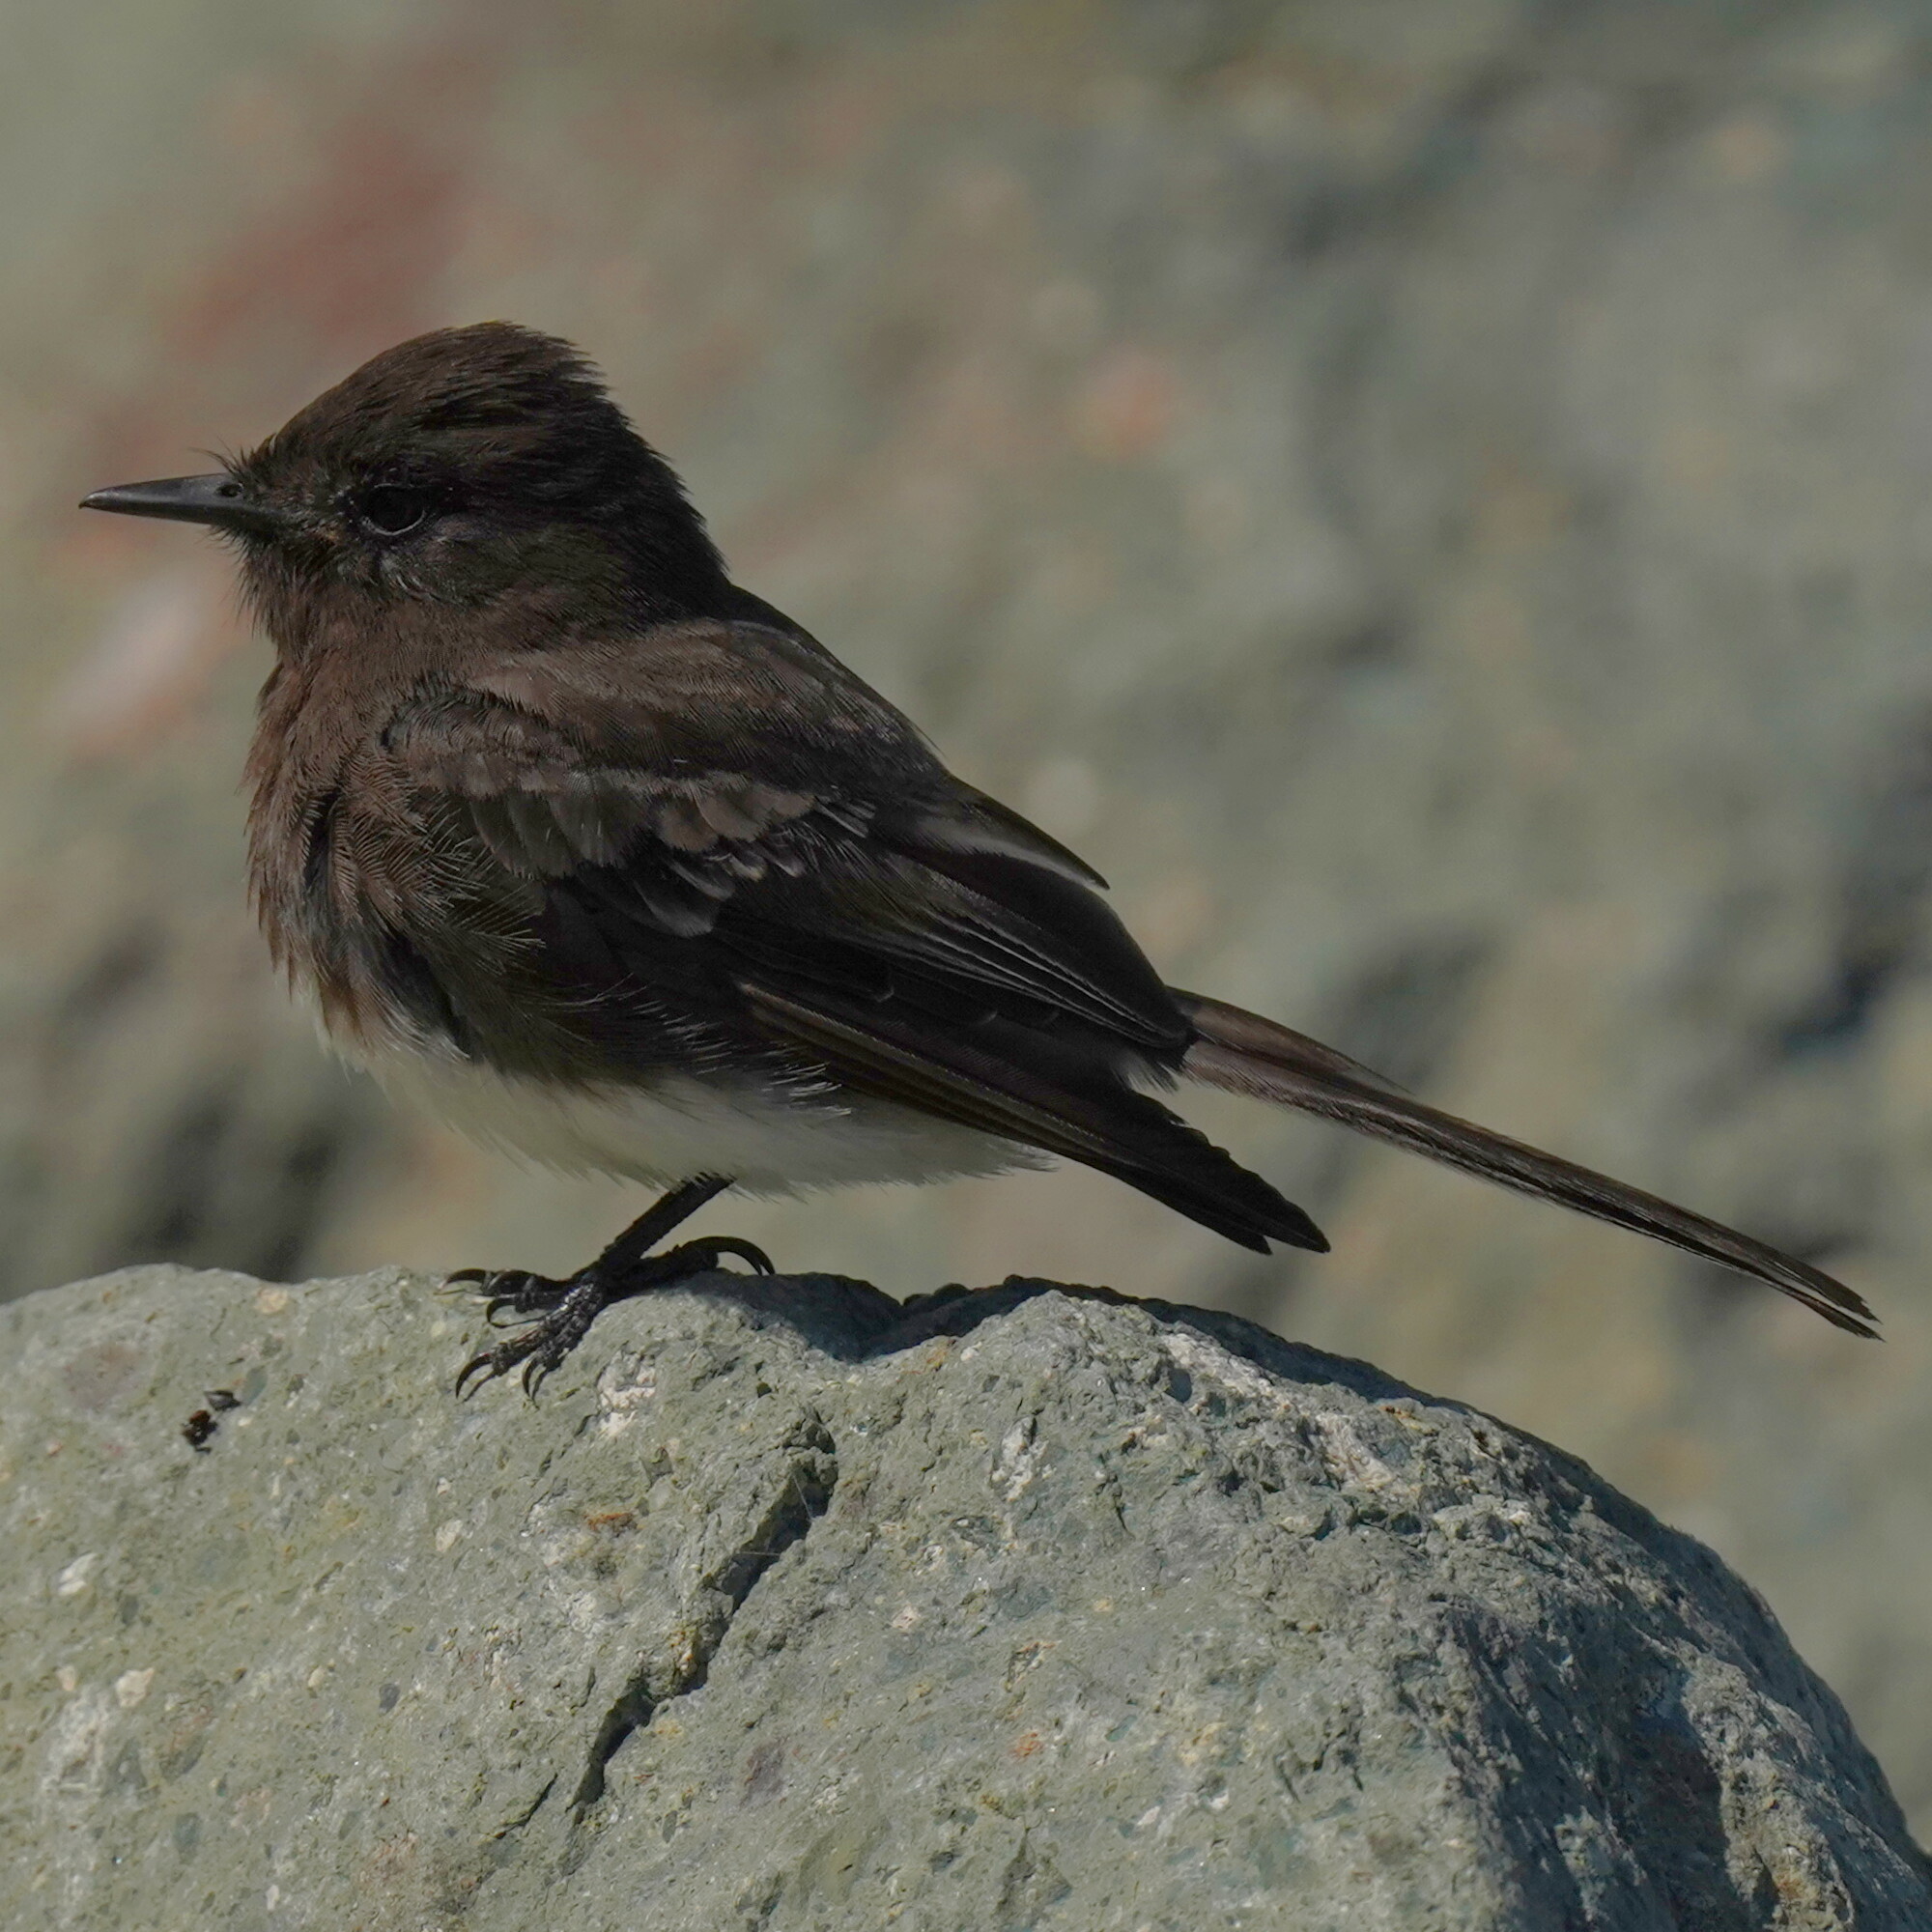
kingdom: Animalia
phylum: Chordata
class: Aves
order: Passeriformes
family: Tyrannidae
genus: Sayornis
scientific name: Sayornis nigricans
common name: Black phoebe
